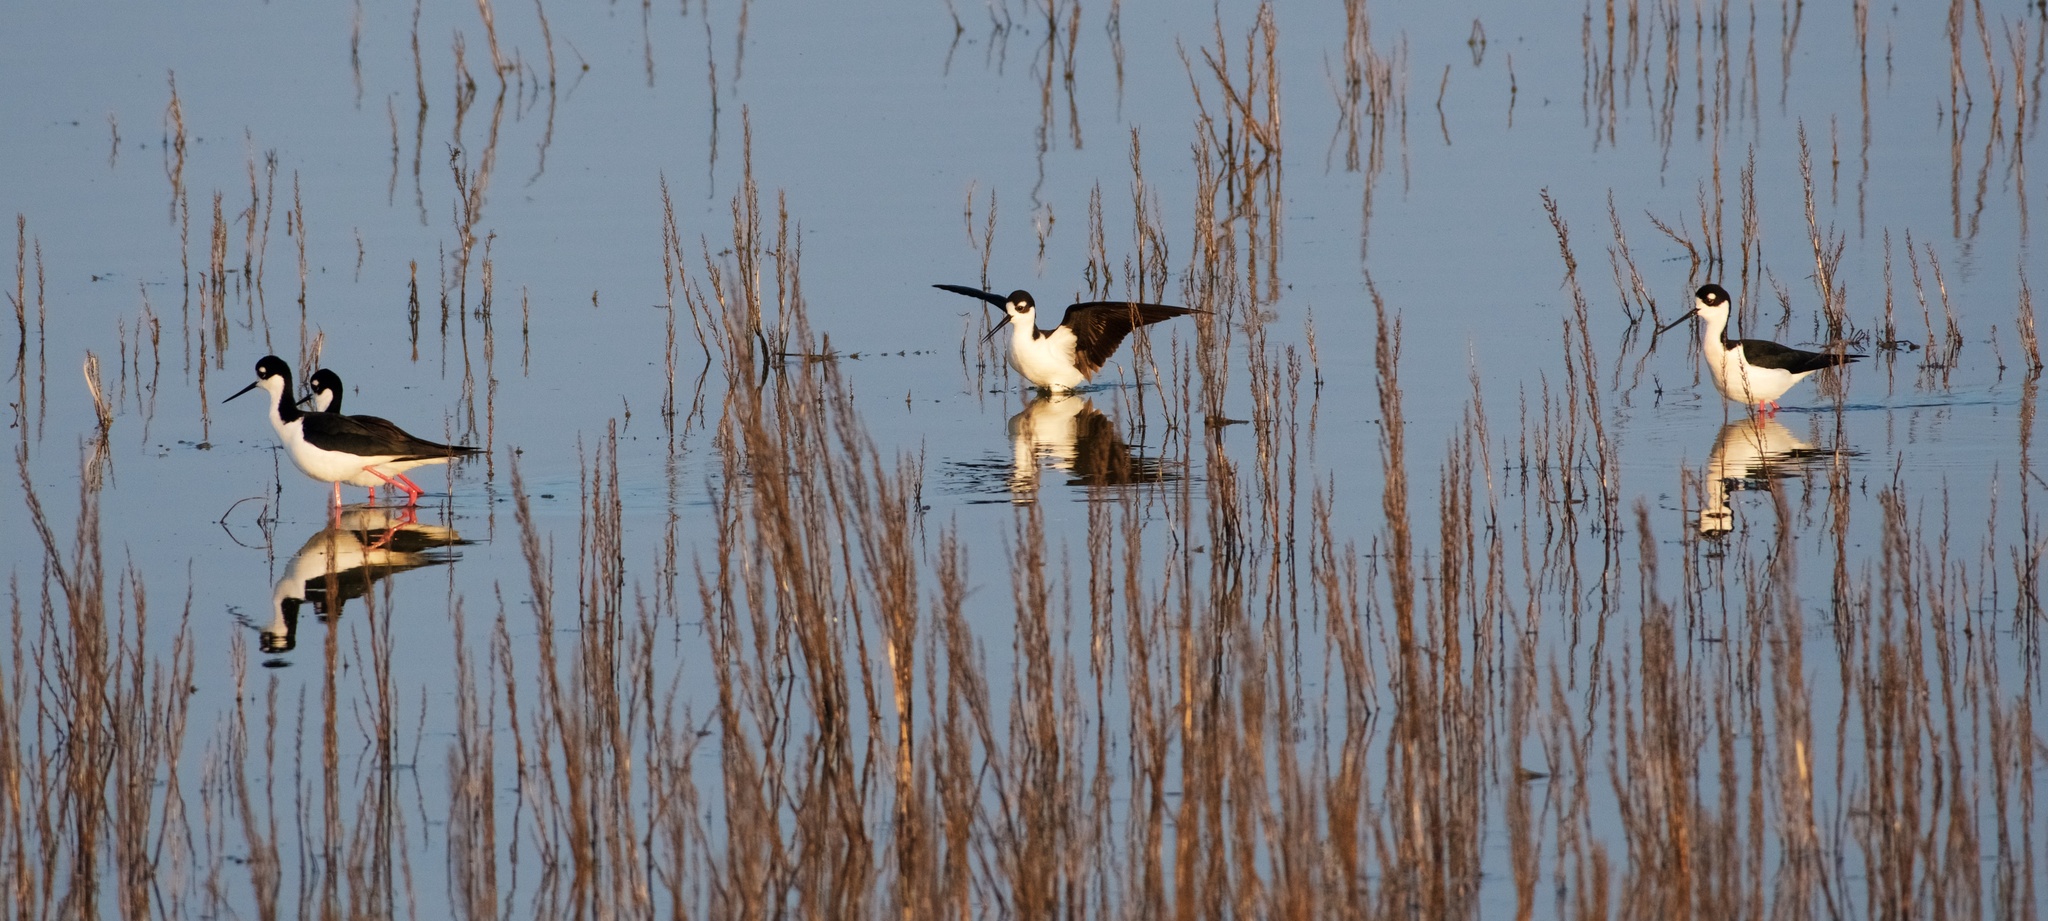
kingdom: Animalia
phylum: Chordata
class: Aves
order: Charadriiformes
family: Recurvirostridae
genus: Himantopus
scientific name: Himantopus mexicanus
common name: Black-necked stilt
